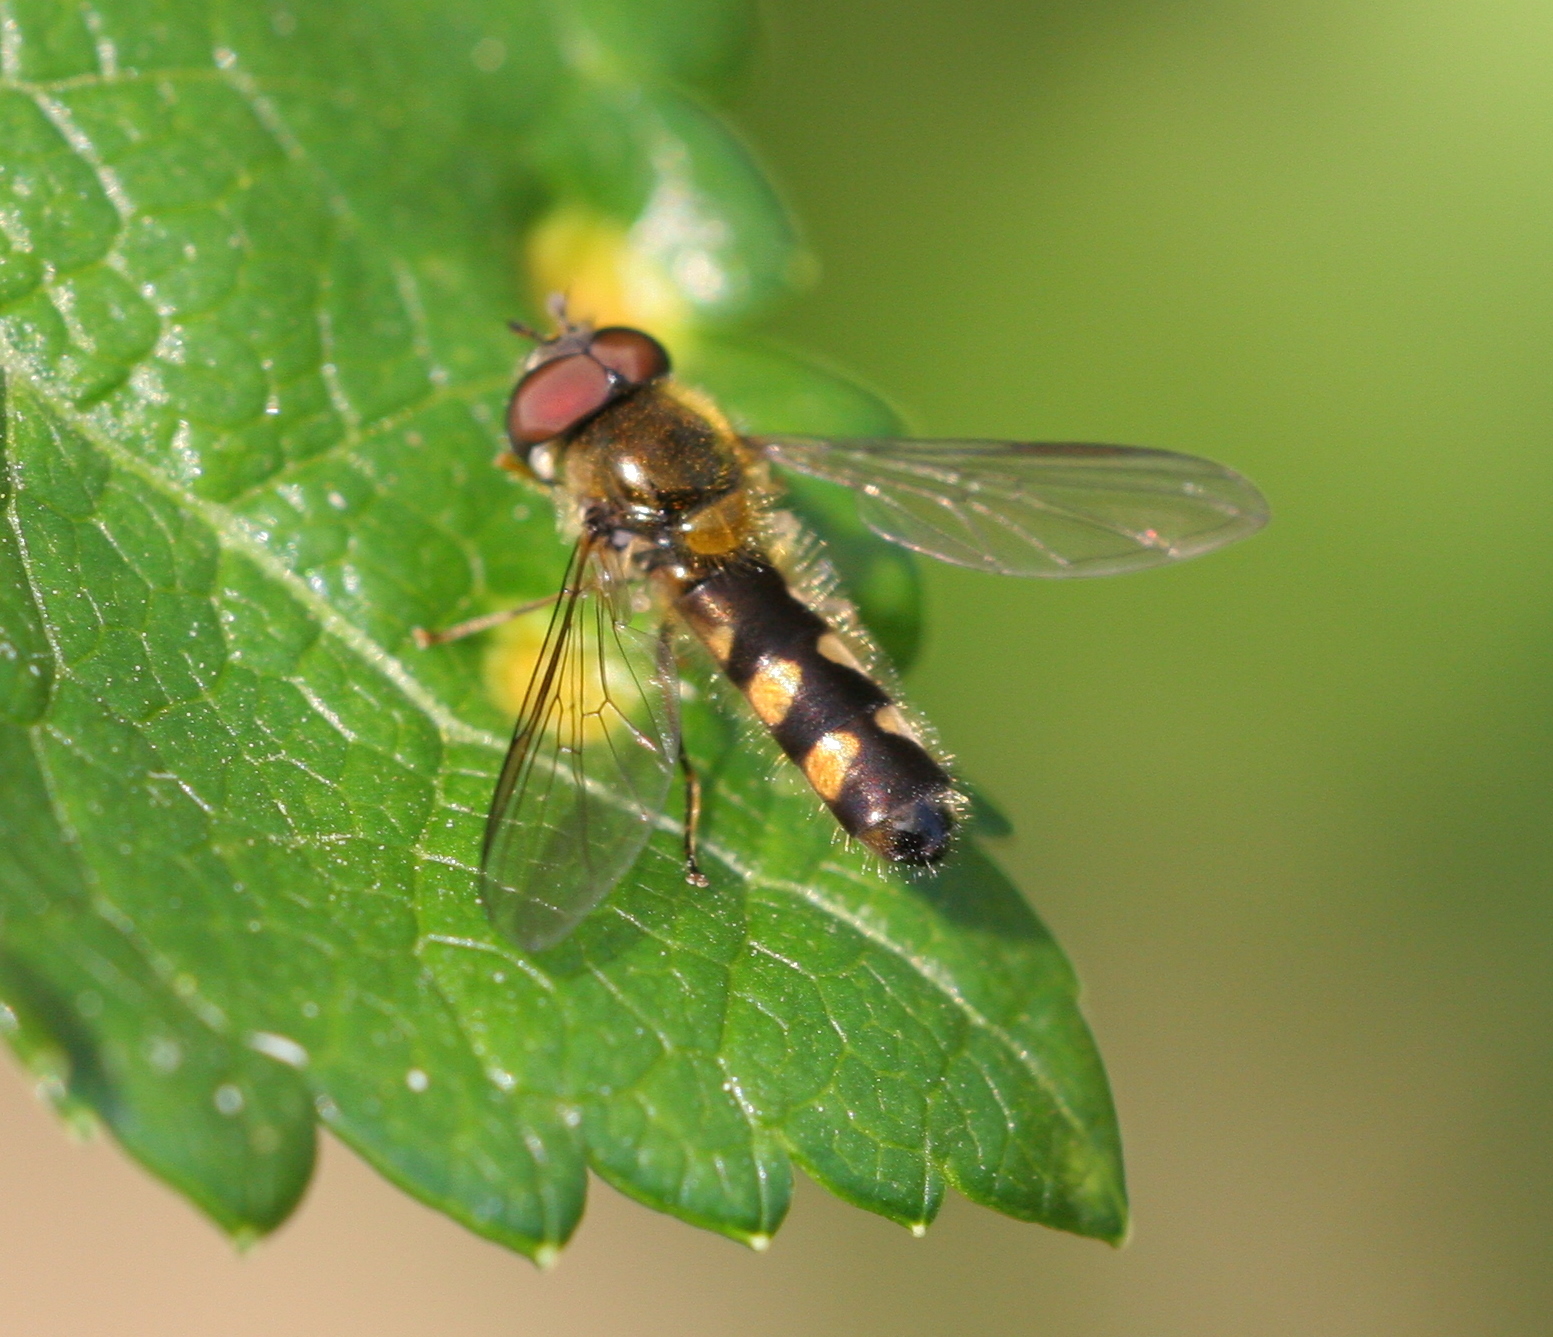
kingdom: Animalia
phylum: Arthropoda
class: Insecta
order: Diptera
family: Syrphidae
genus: Meligramma
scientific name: Meligramma triangulifera
